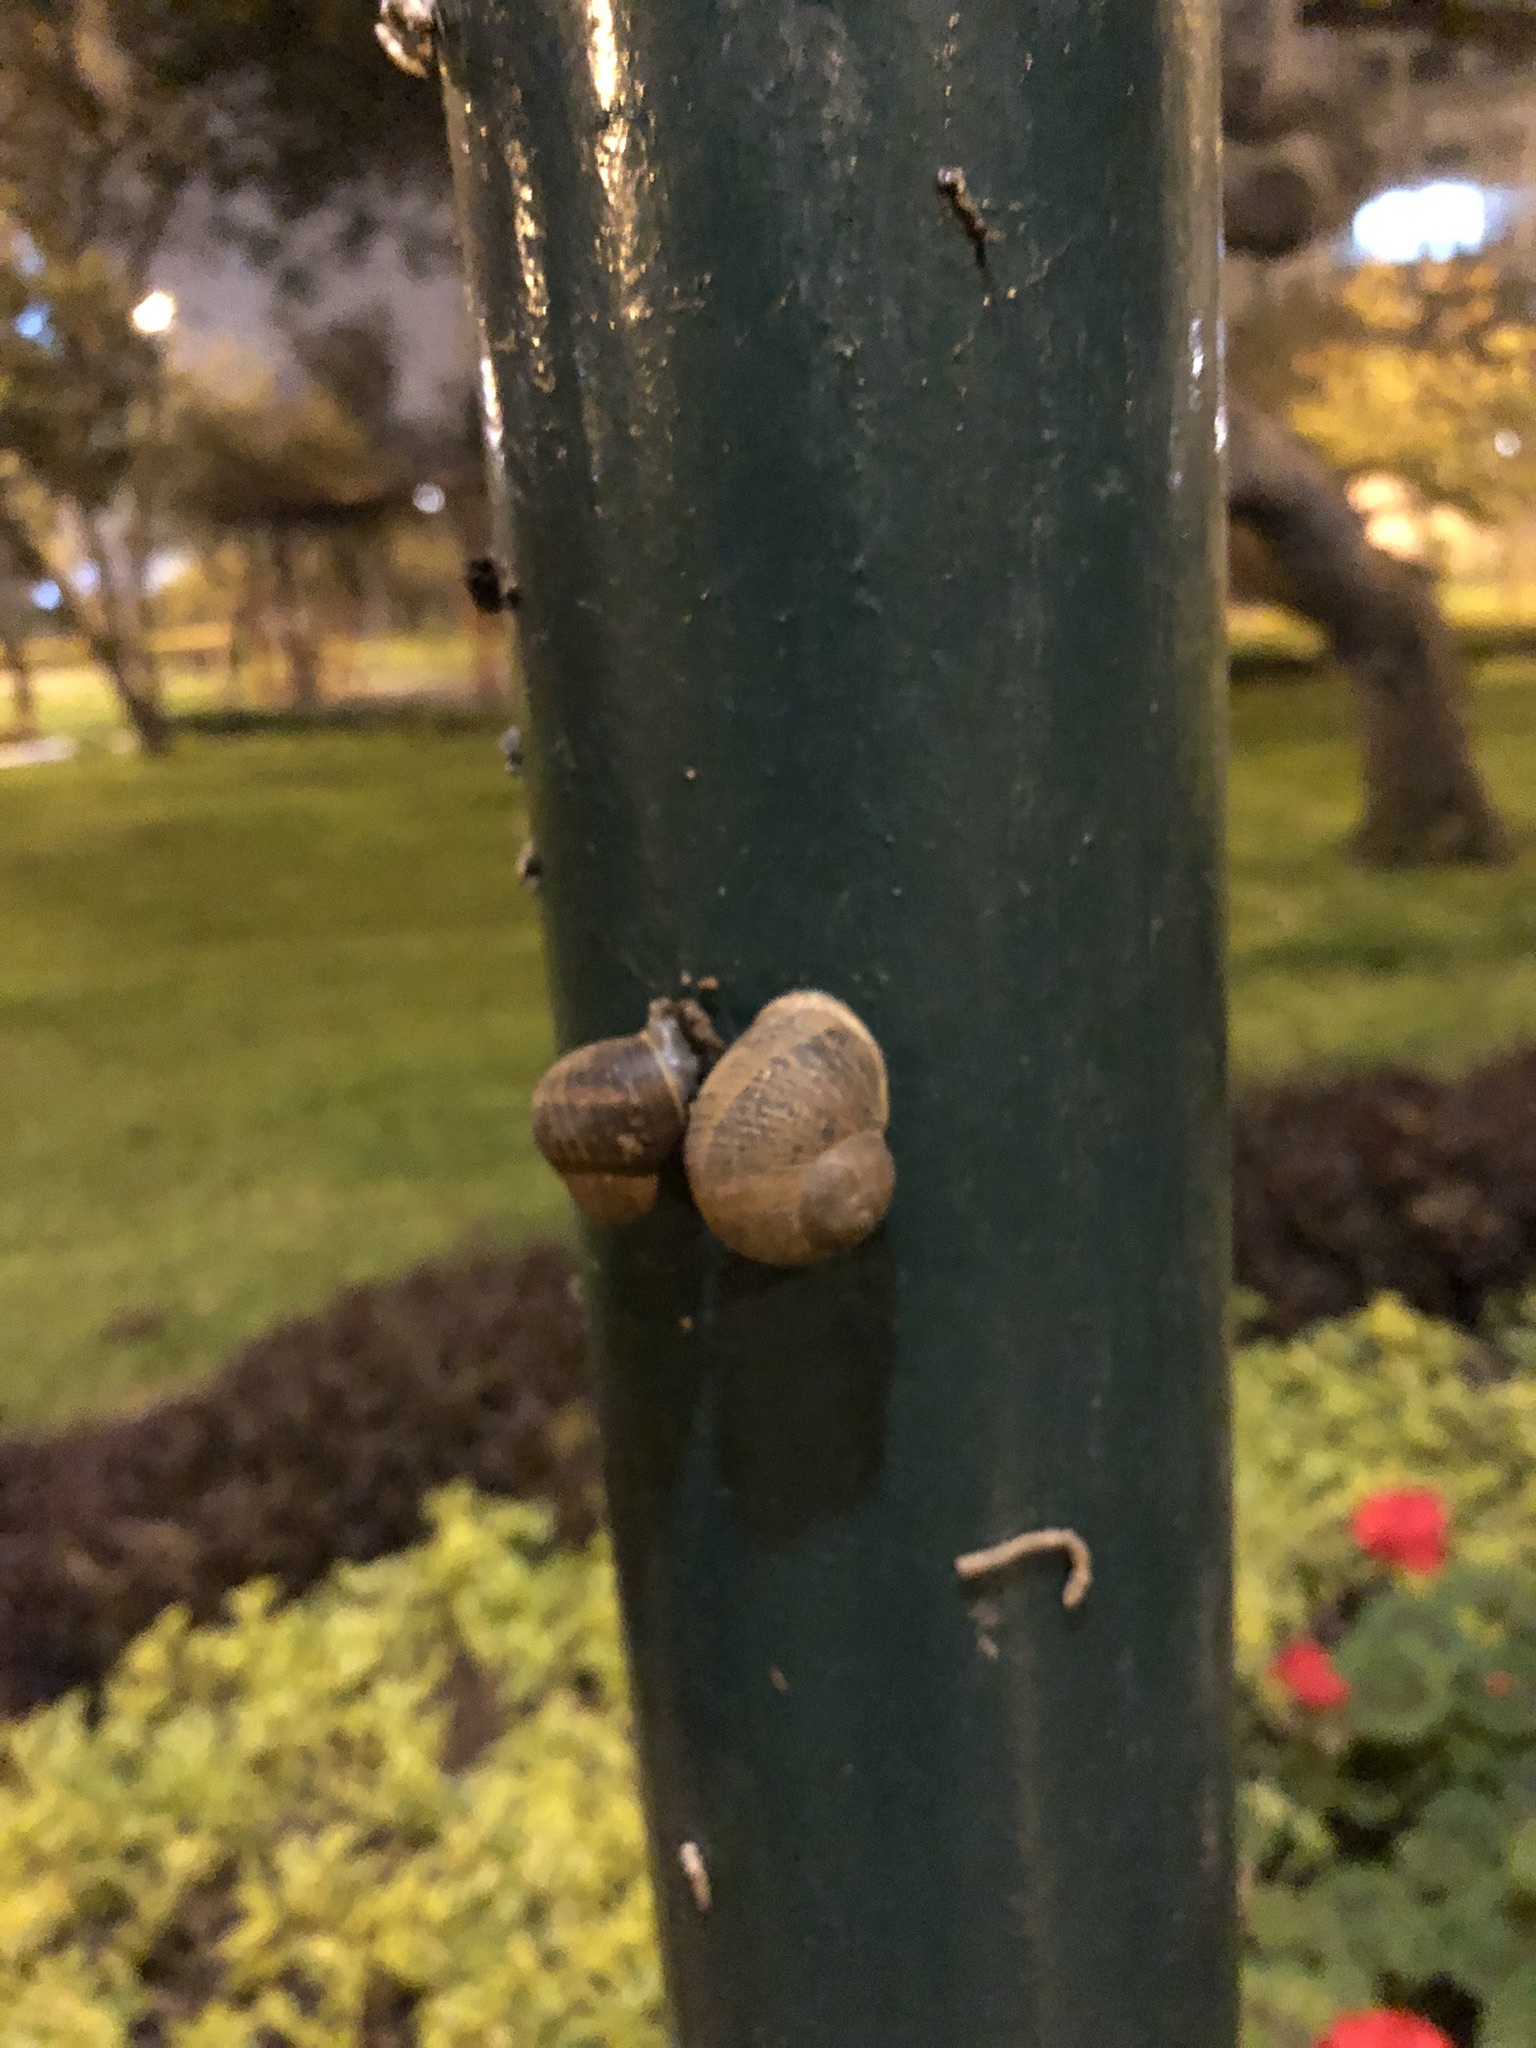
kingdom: Animalia
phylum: Mollusca
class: Gastropoda
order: Stylommatophora
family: Helicidae
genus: Cornu
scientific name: Cornu aspersum
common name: Brown garden snail
